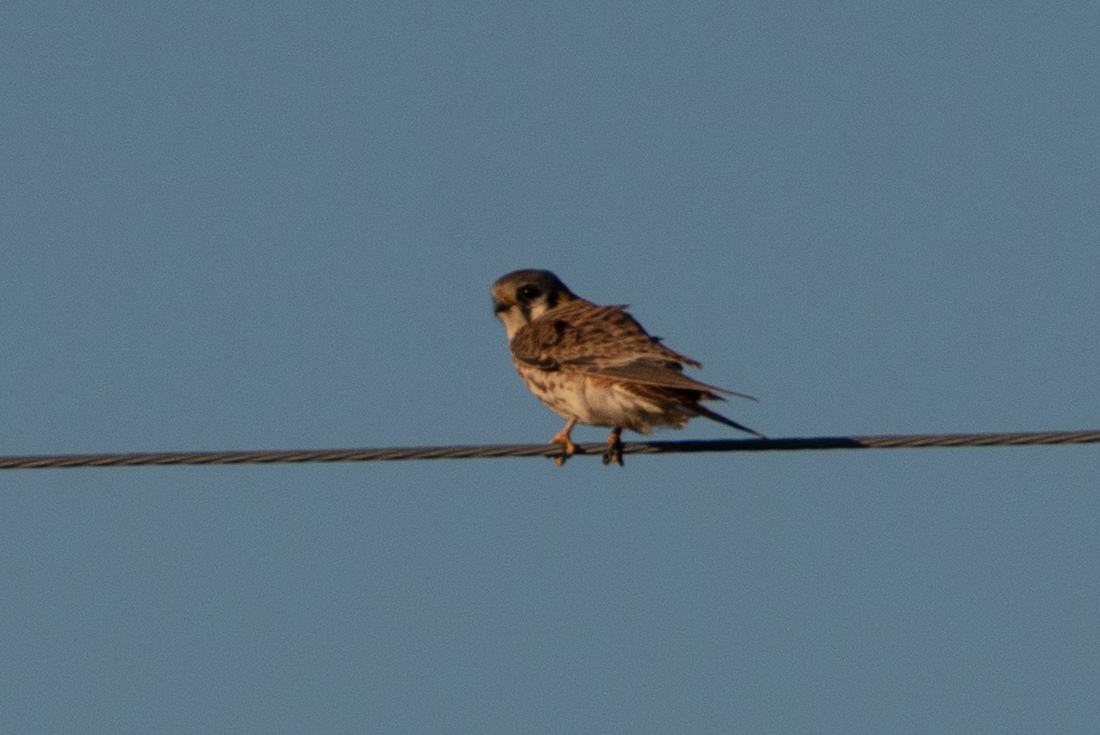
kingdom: Animalia
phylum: Chordata
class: Aves
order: Falconiformes
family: Falconidae
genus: Falco
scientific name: Falco sparverius
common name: American kestrel
